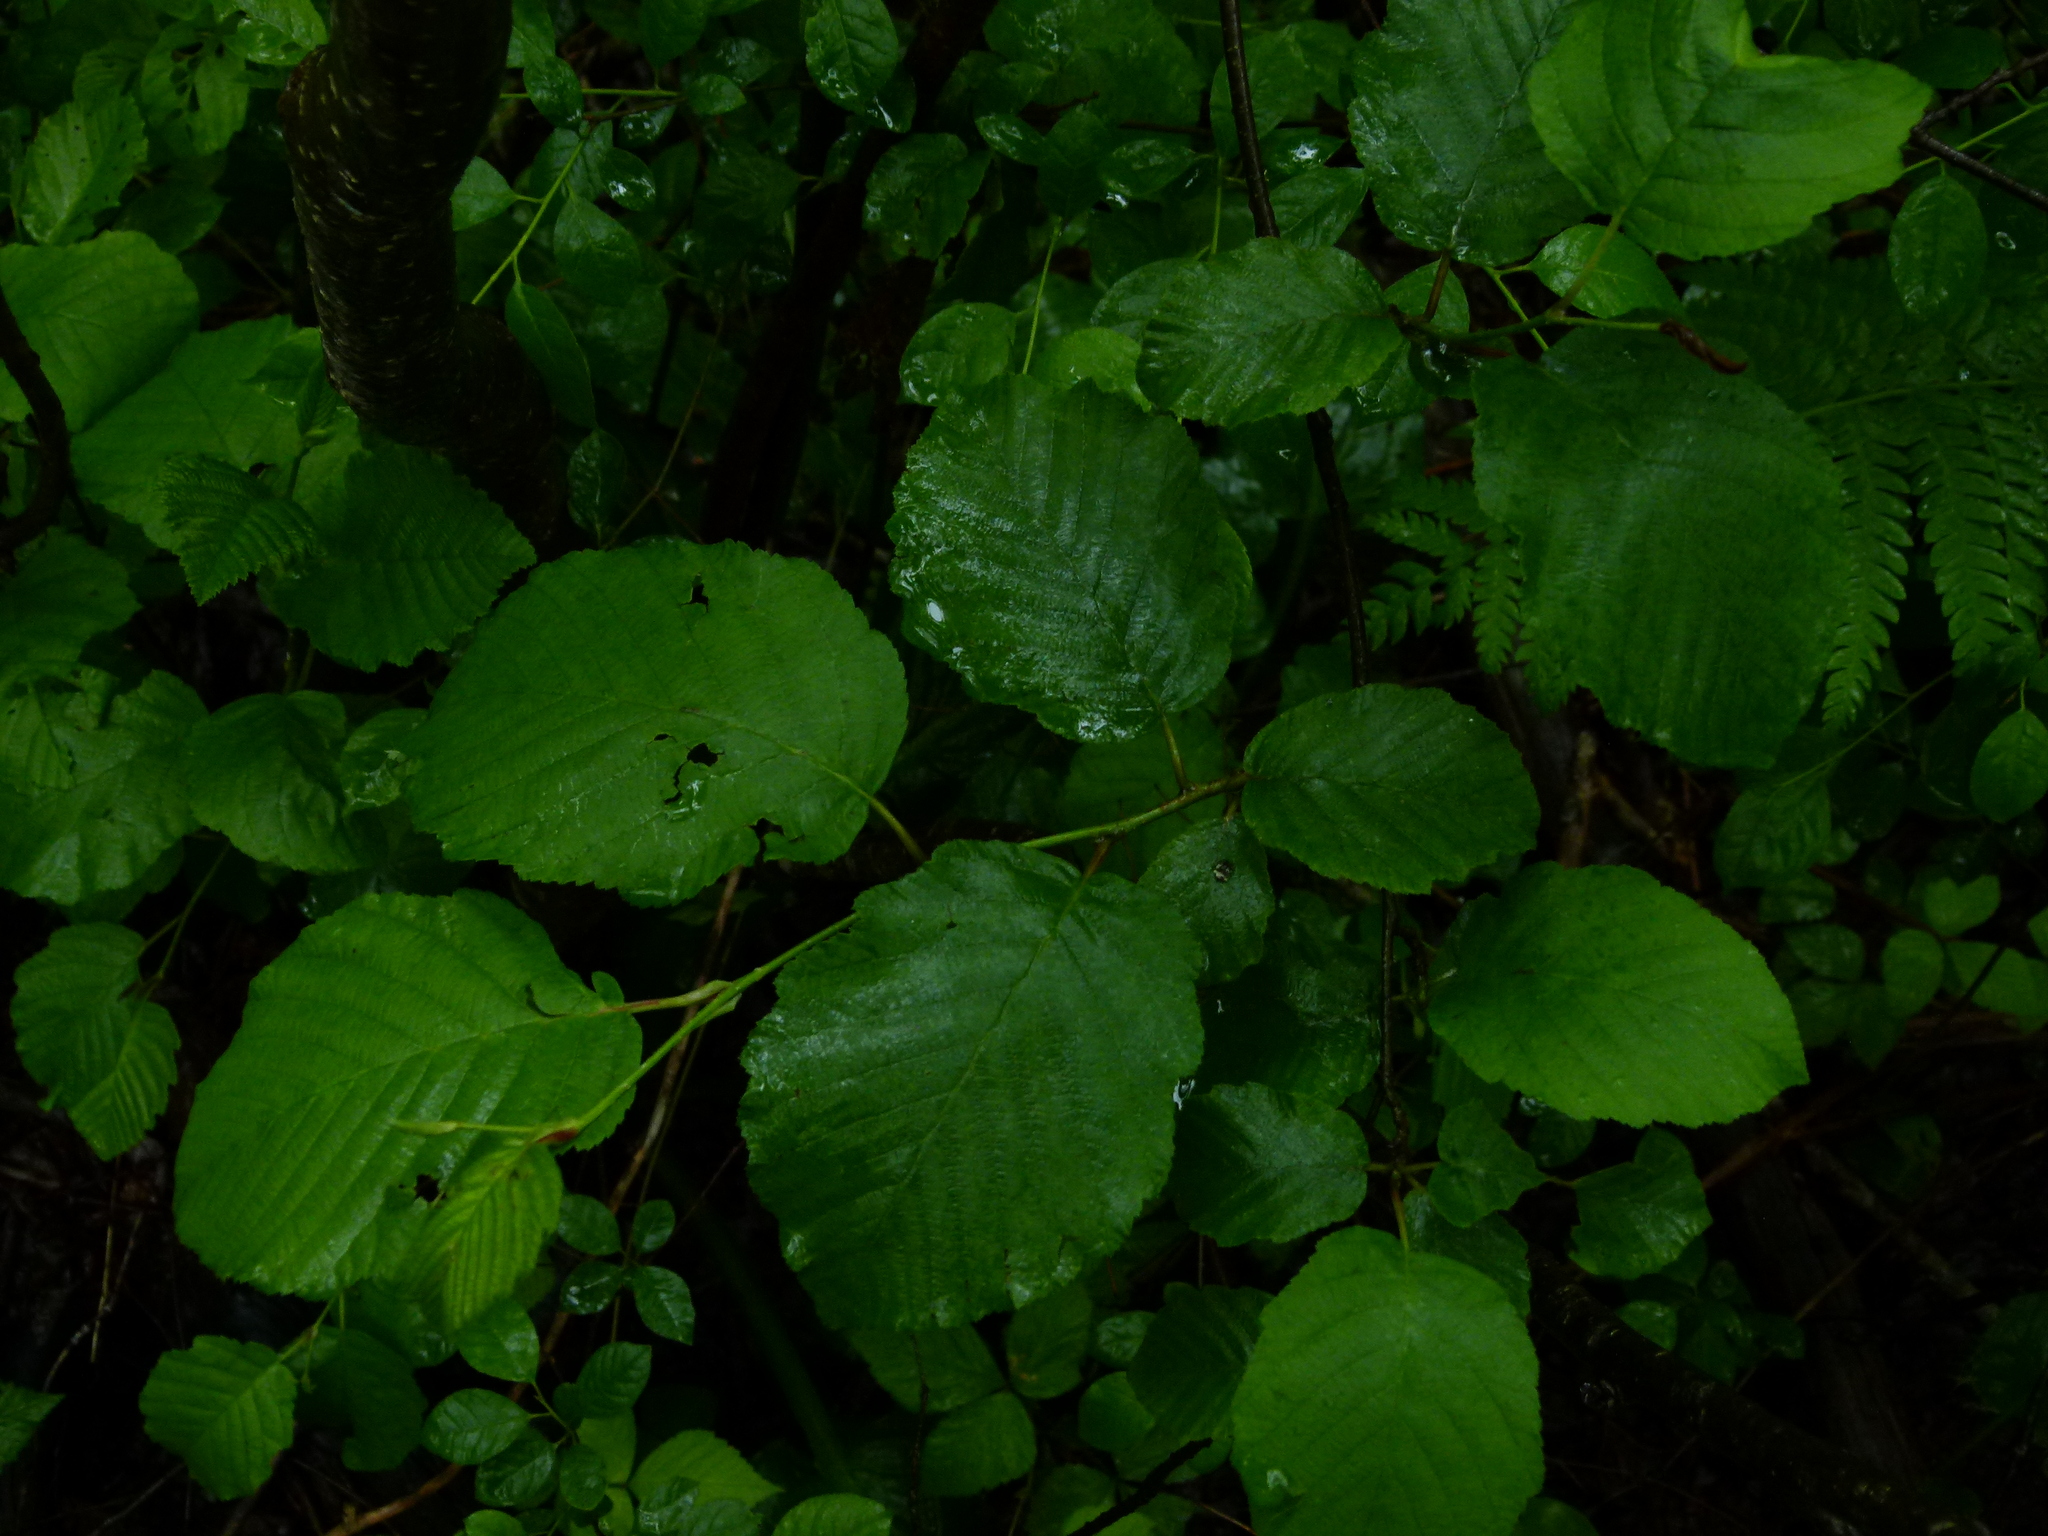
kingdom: Plantae
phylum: Tracheophyta
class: Magnoliopsida
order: Saxifragales
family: Hamamelidaceae
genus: Hamamelis
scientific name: Hamamelis virginiana
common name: Witch-hazel
